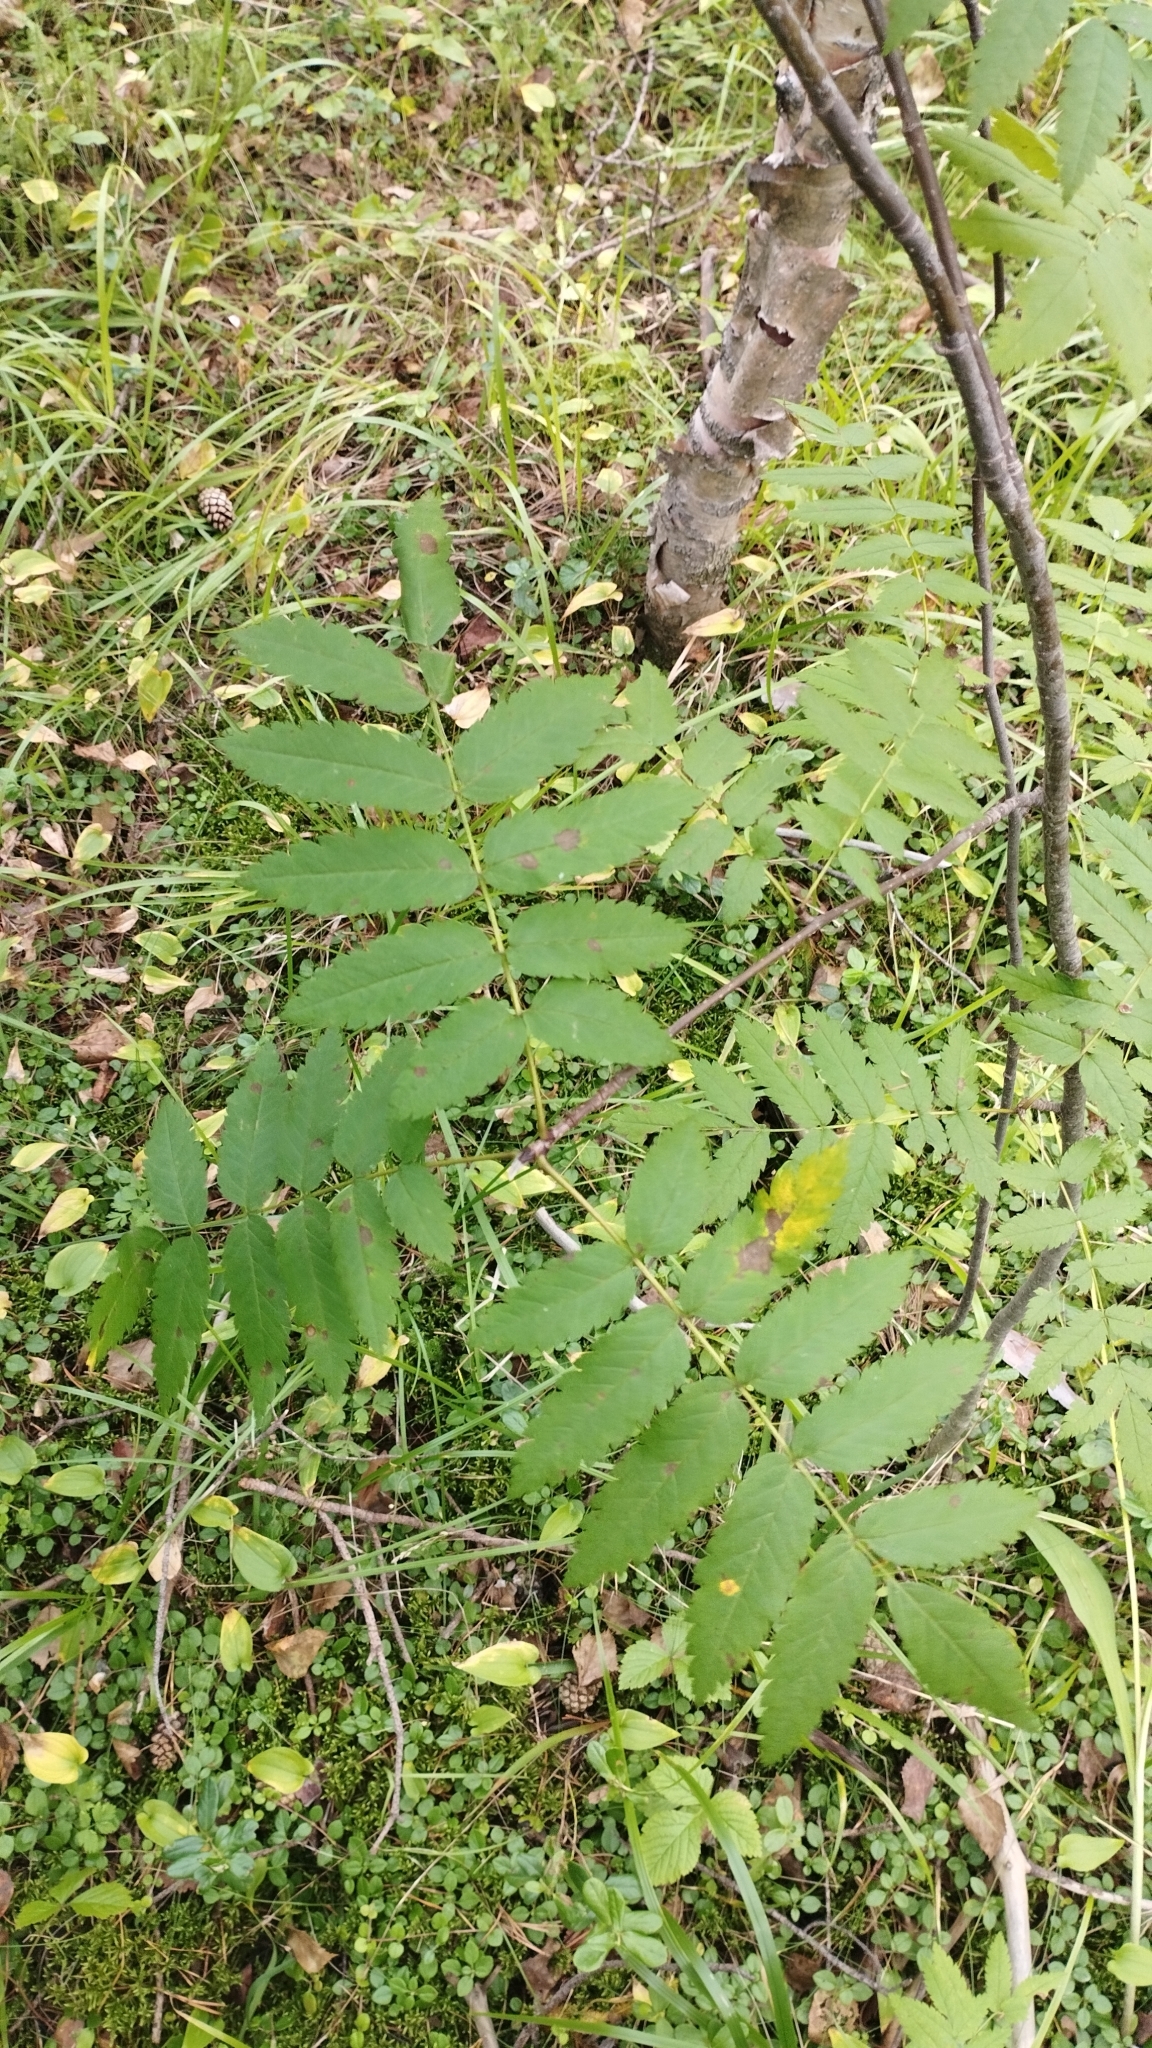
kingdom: Plantae
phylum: Tracheophyta
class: Magnoliopsida
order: Rosales
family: Rosaceae
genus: Sorbus
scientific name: Sorbus aucuparia
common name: Rowan
